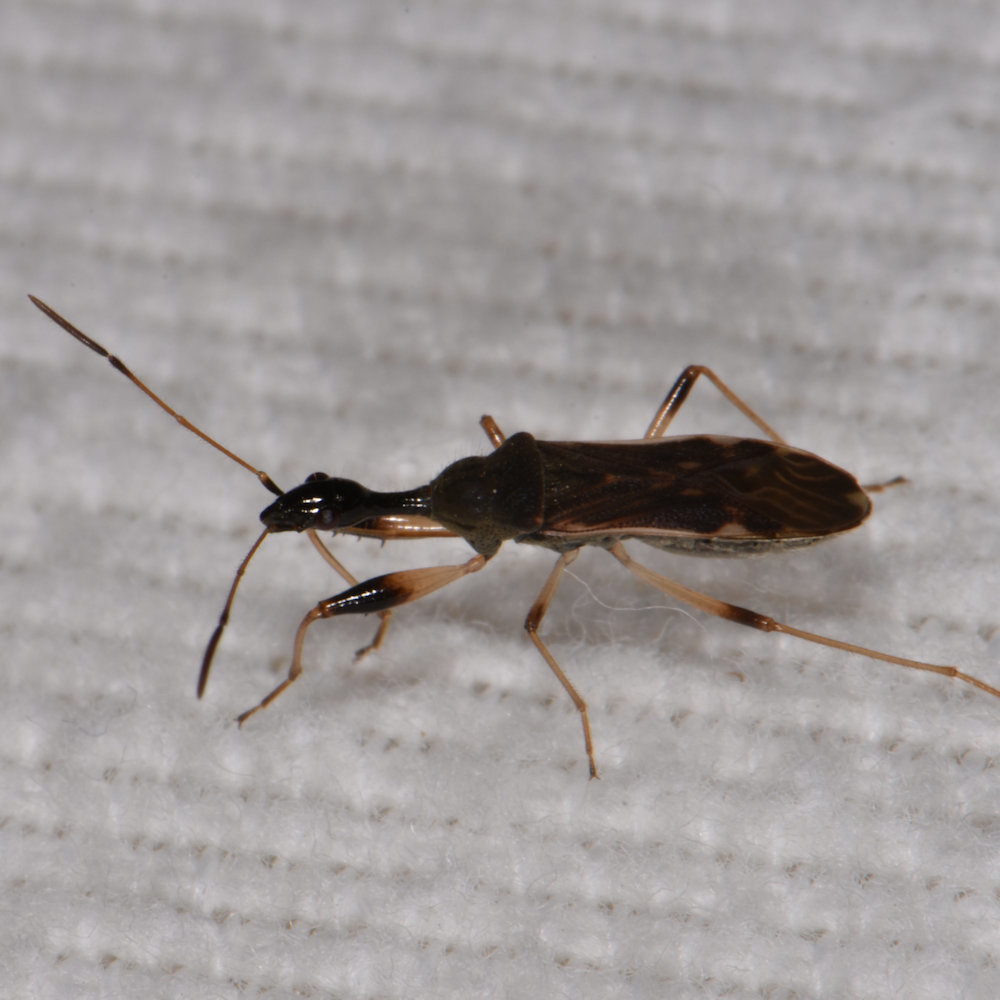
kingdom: Animalia
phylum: Arthropoda
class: Insecta
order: Hemiptera
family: Rhyparochromidae
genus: Myodocha
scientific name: Myodocha serripes
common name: Long-necked seed bug
